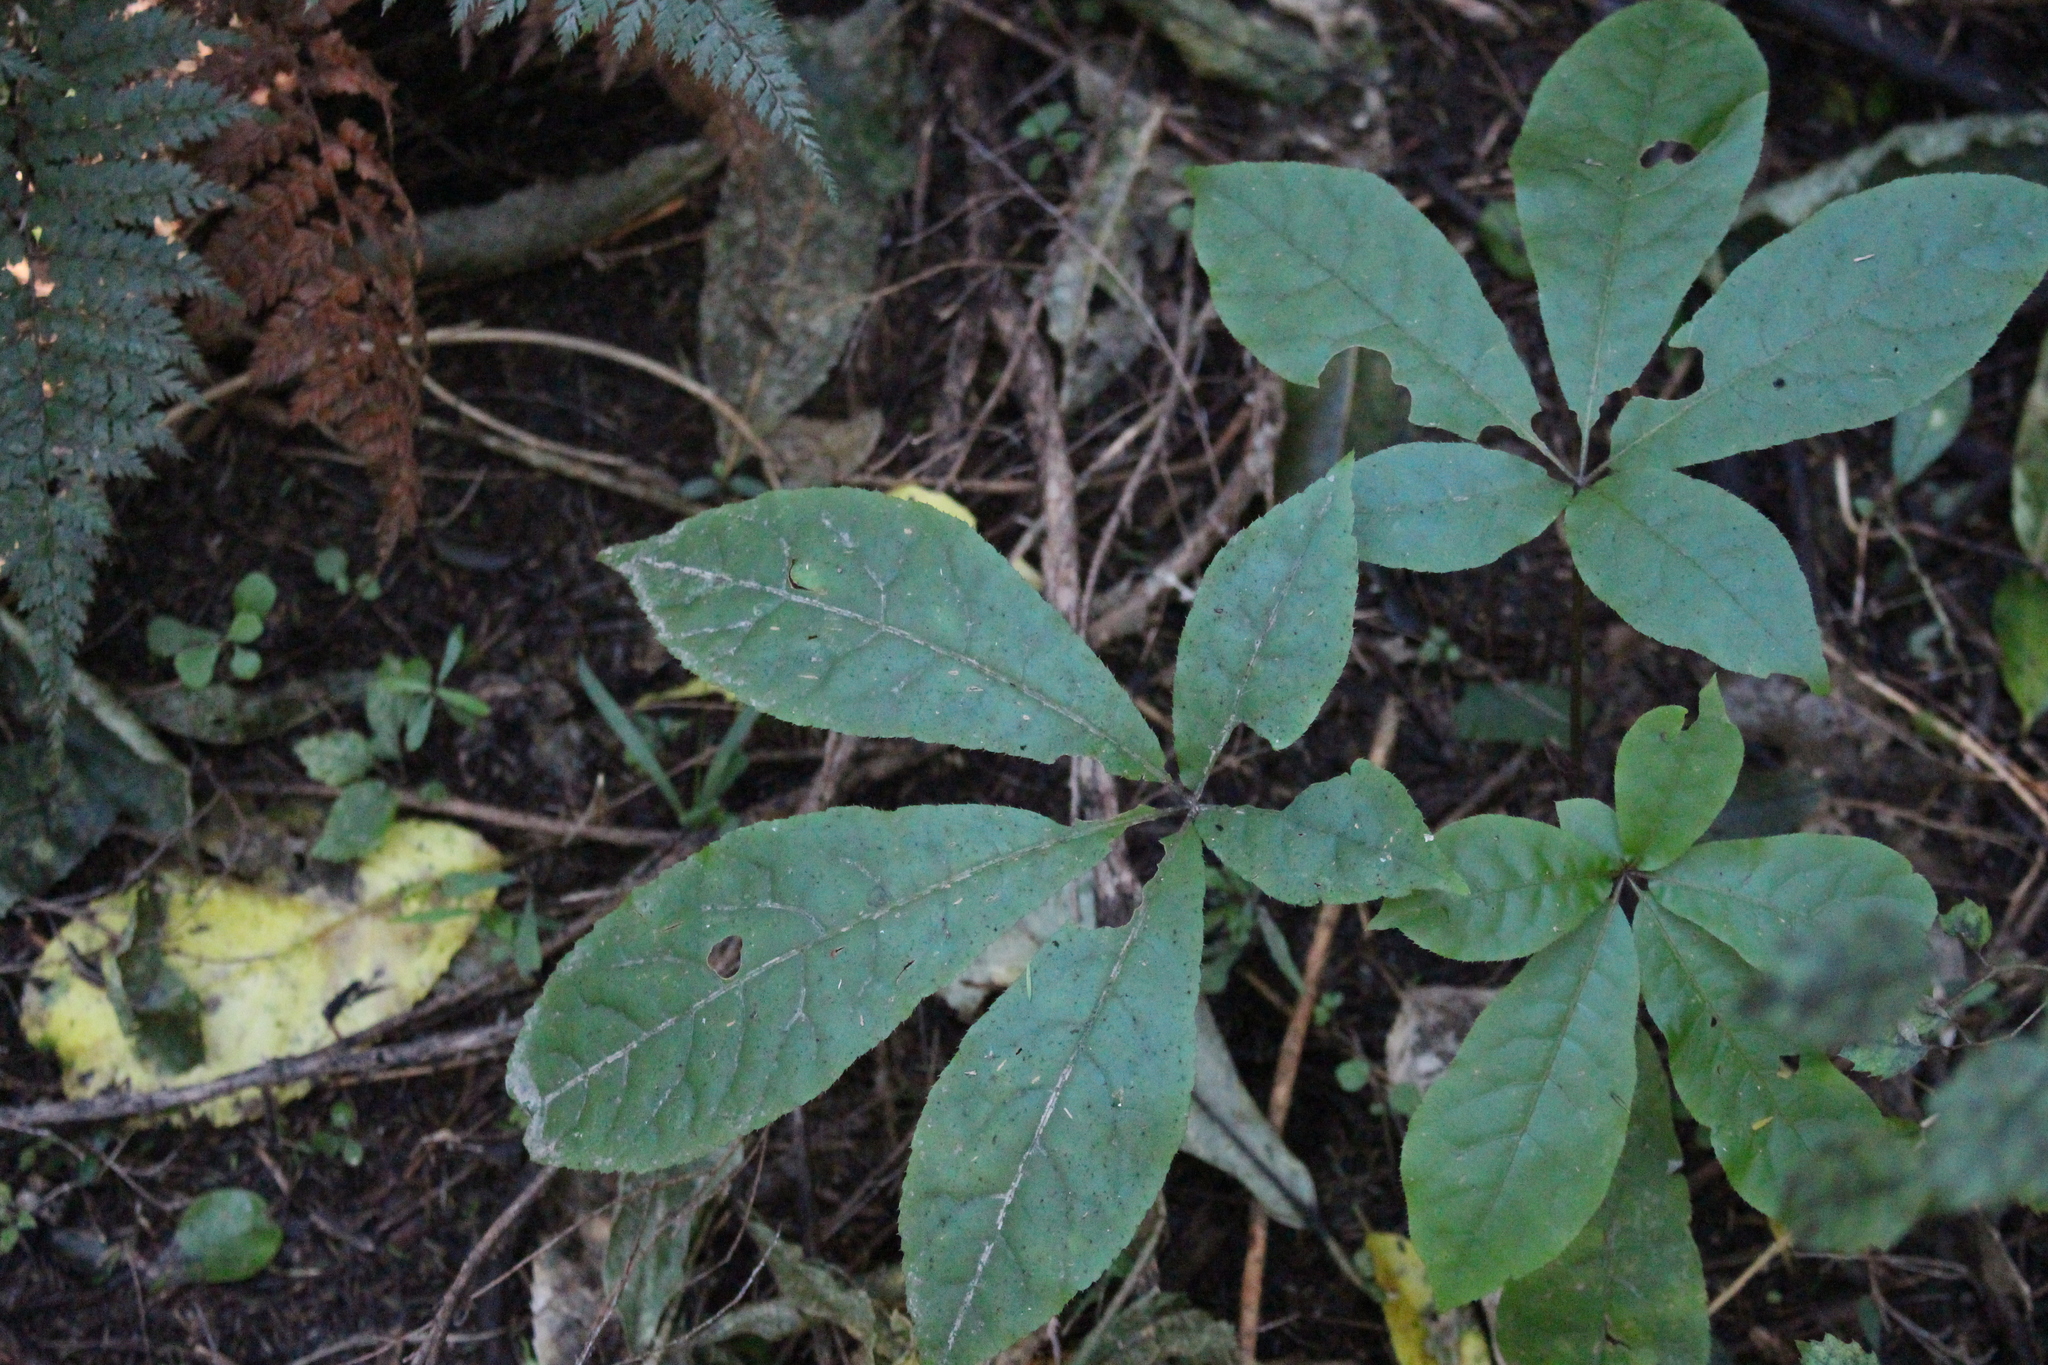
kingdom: Plantae
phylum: Tracheophyta
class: Magnoliopsida
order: Apiales
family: Araliaceae
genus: Schefflera
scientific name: Schefflera digitata
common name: Pate
